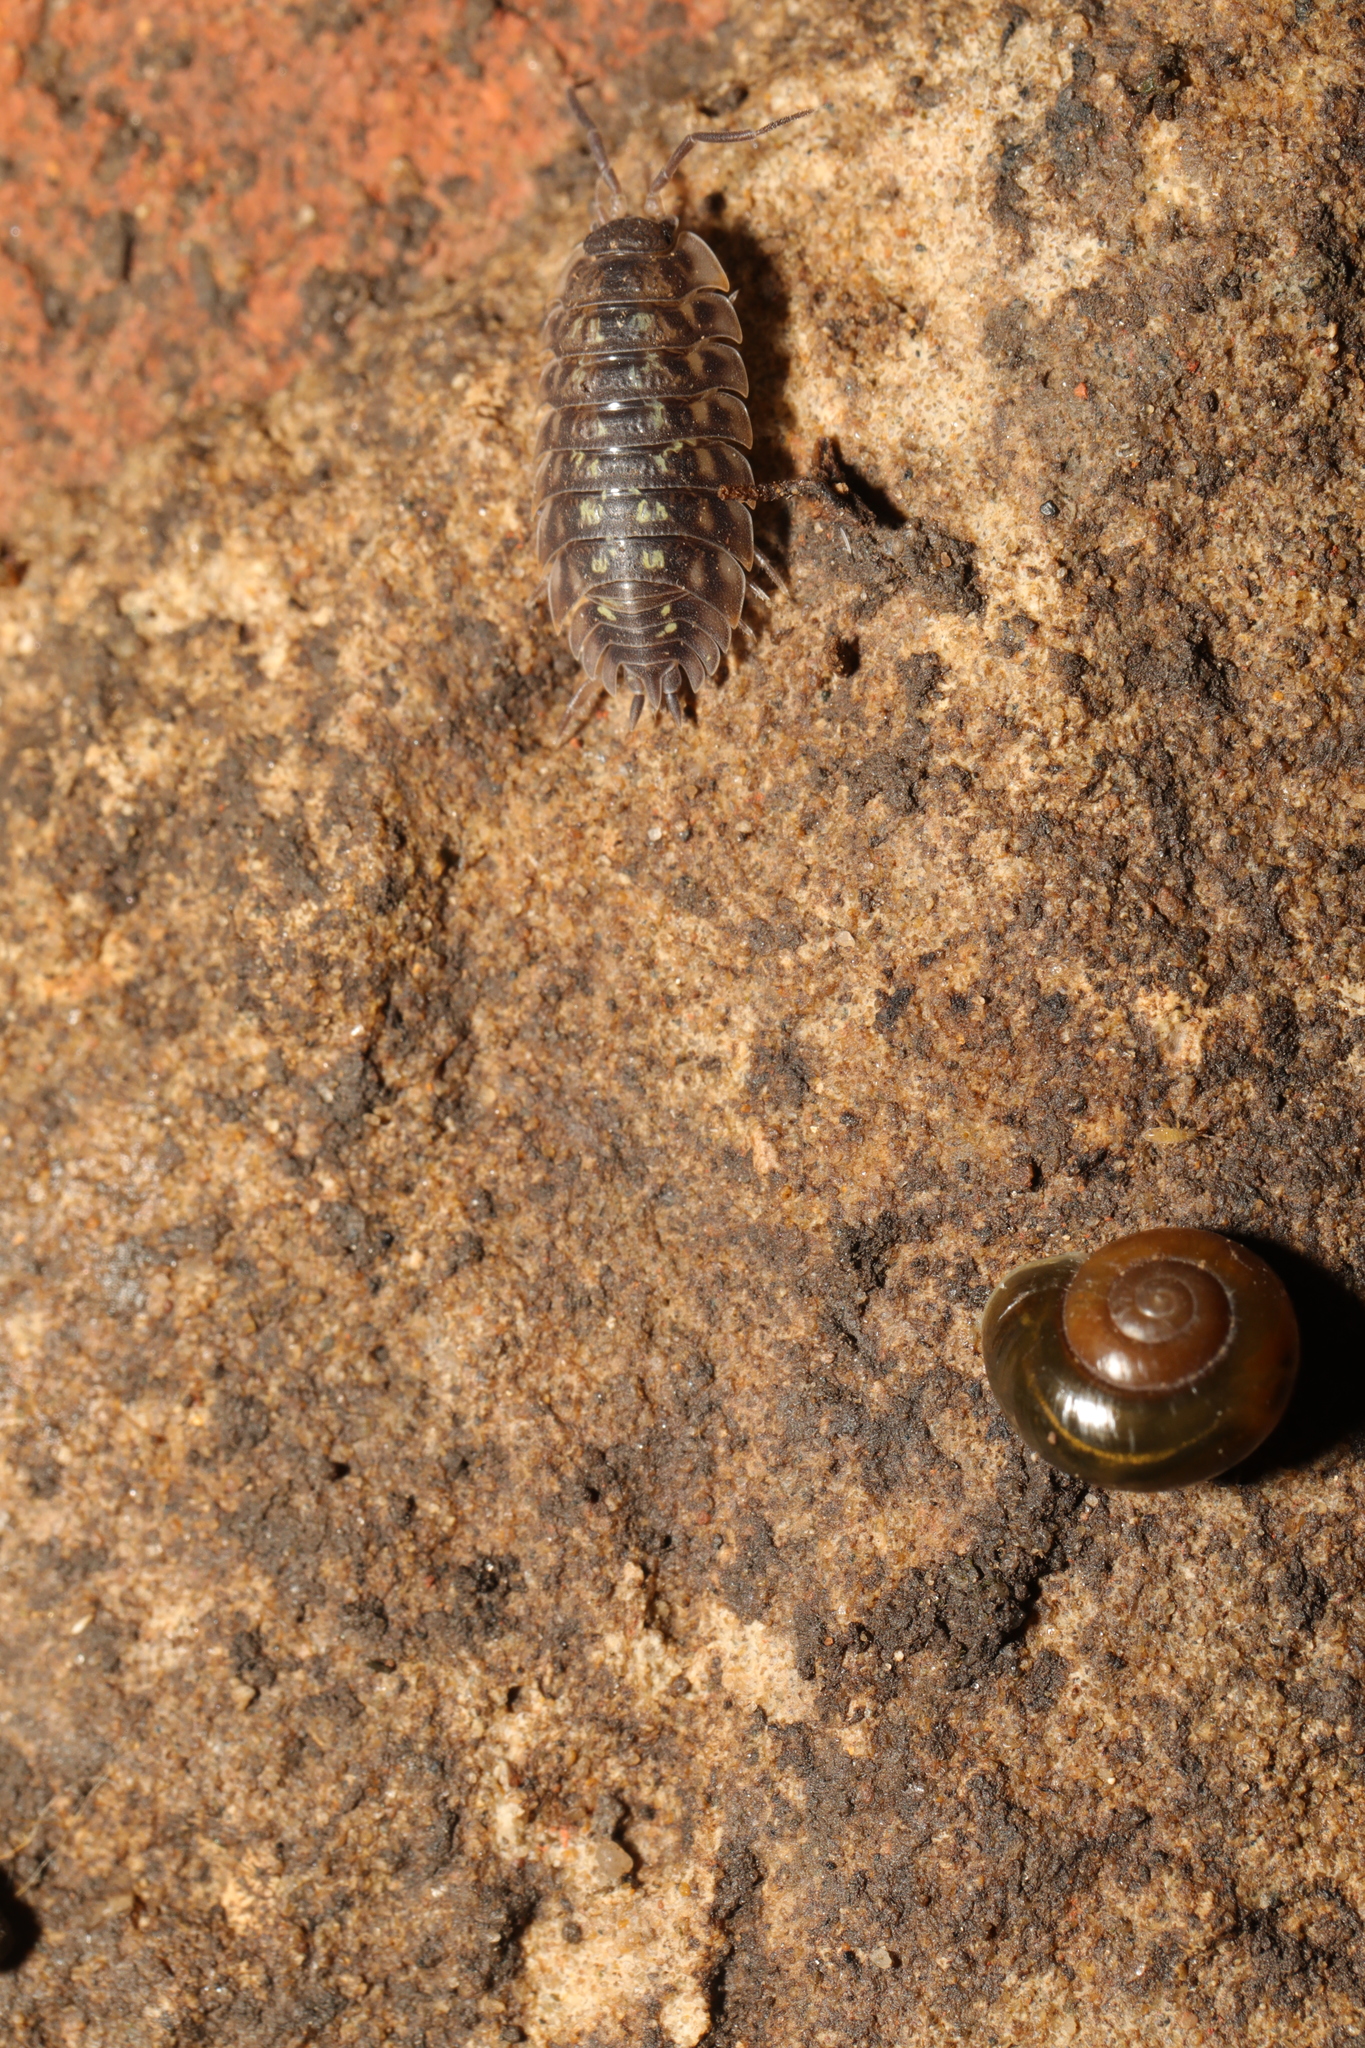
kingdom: Animalia
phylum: Arthropoda
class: Malacostraca
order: Isopoda
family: Oniscidae
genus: Oniscus
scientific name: Oniscus asellus
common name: Common shiny woodlouse
